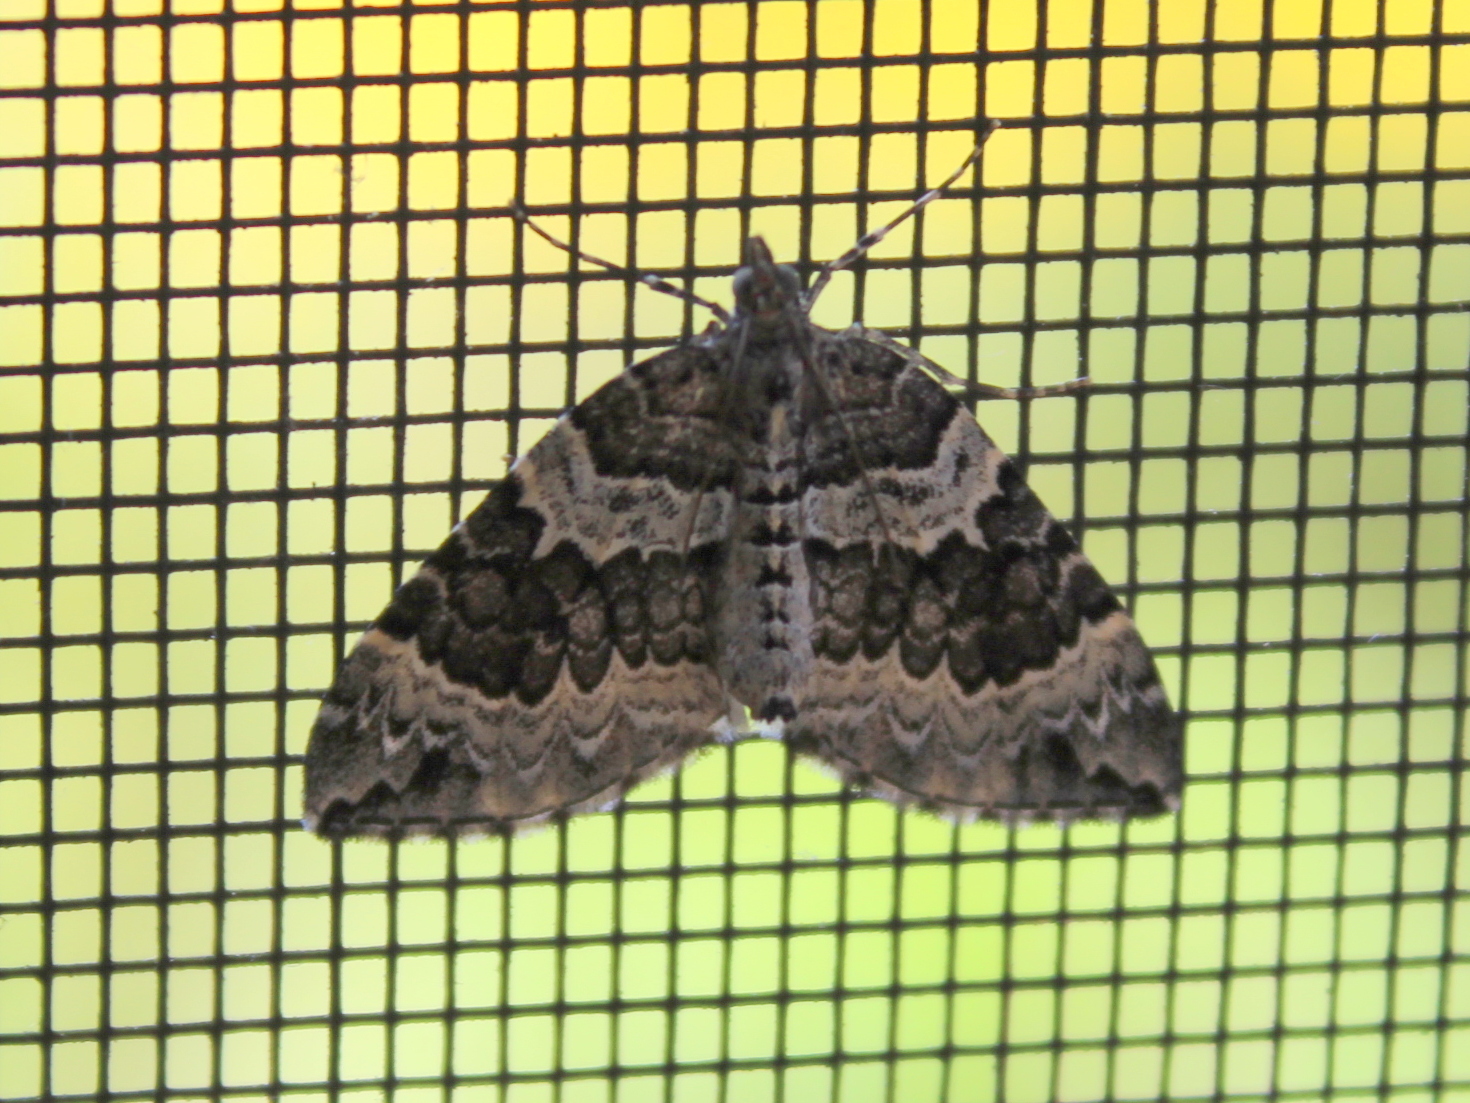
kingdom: Animalia
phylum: Arthropoda
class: Insecta
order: Lepidoptera
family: Geometridae
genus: Eulithis
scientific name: Eulithis explanata
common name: White eulithis
